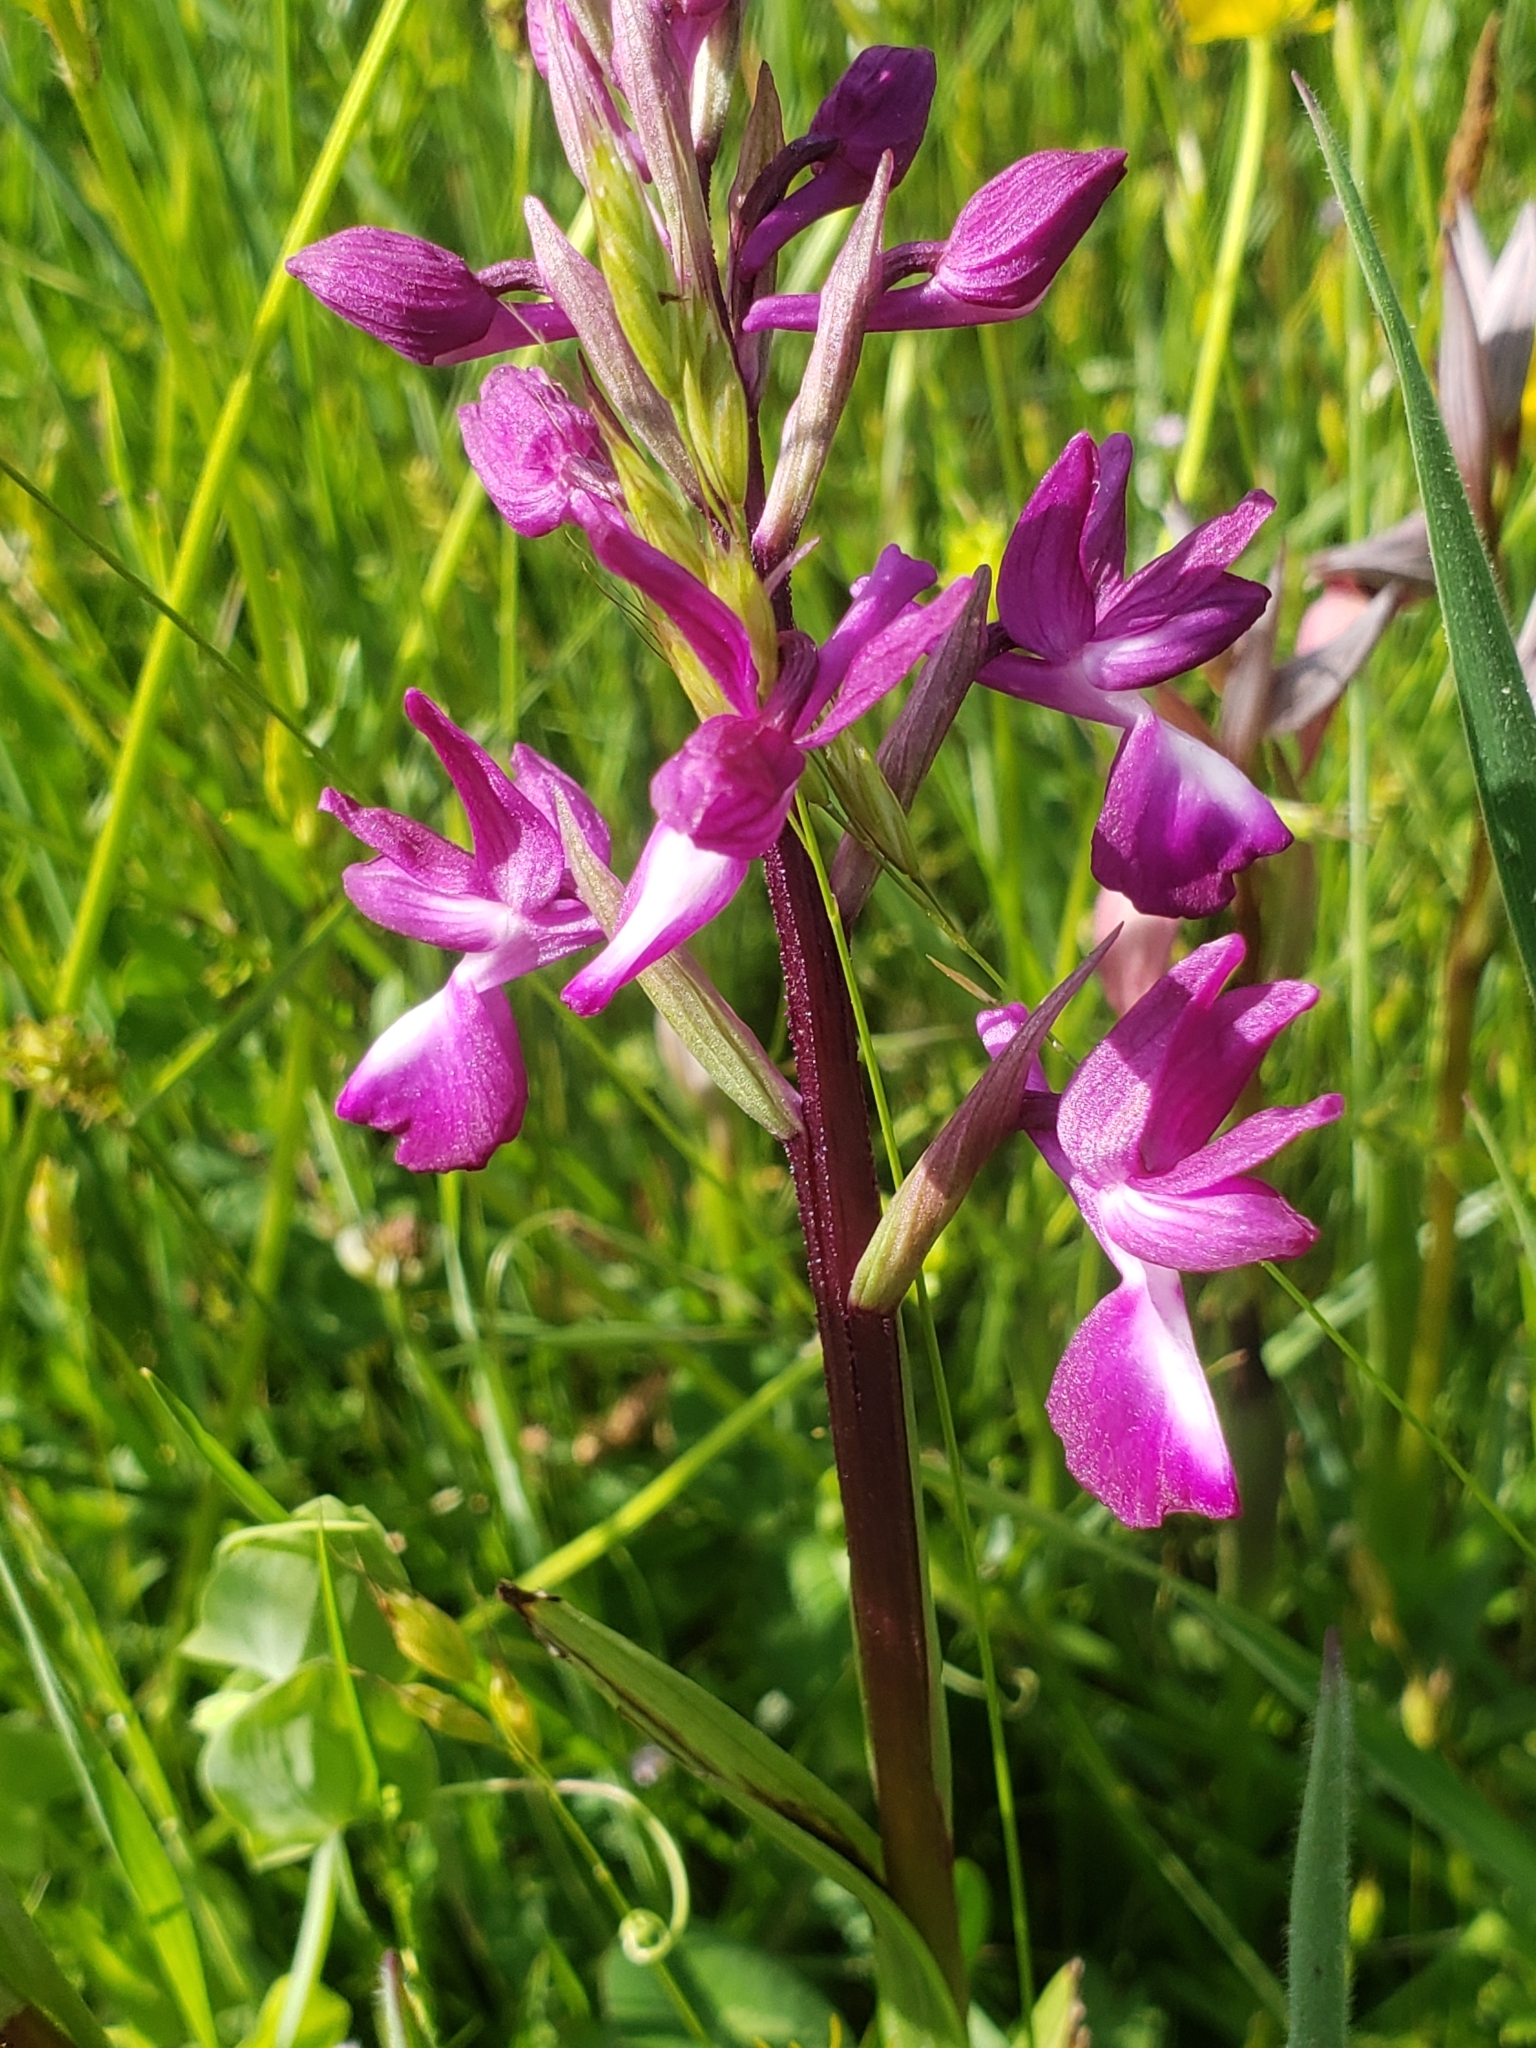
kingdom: Plantae
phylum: Tracheophyta
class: Liliopsida
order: Asparagales
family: Orchidaceae
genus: Anacamptis
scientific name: Anacamptis laxiflora
